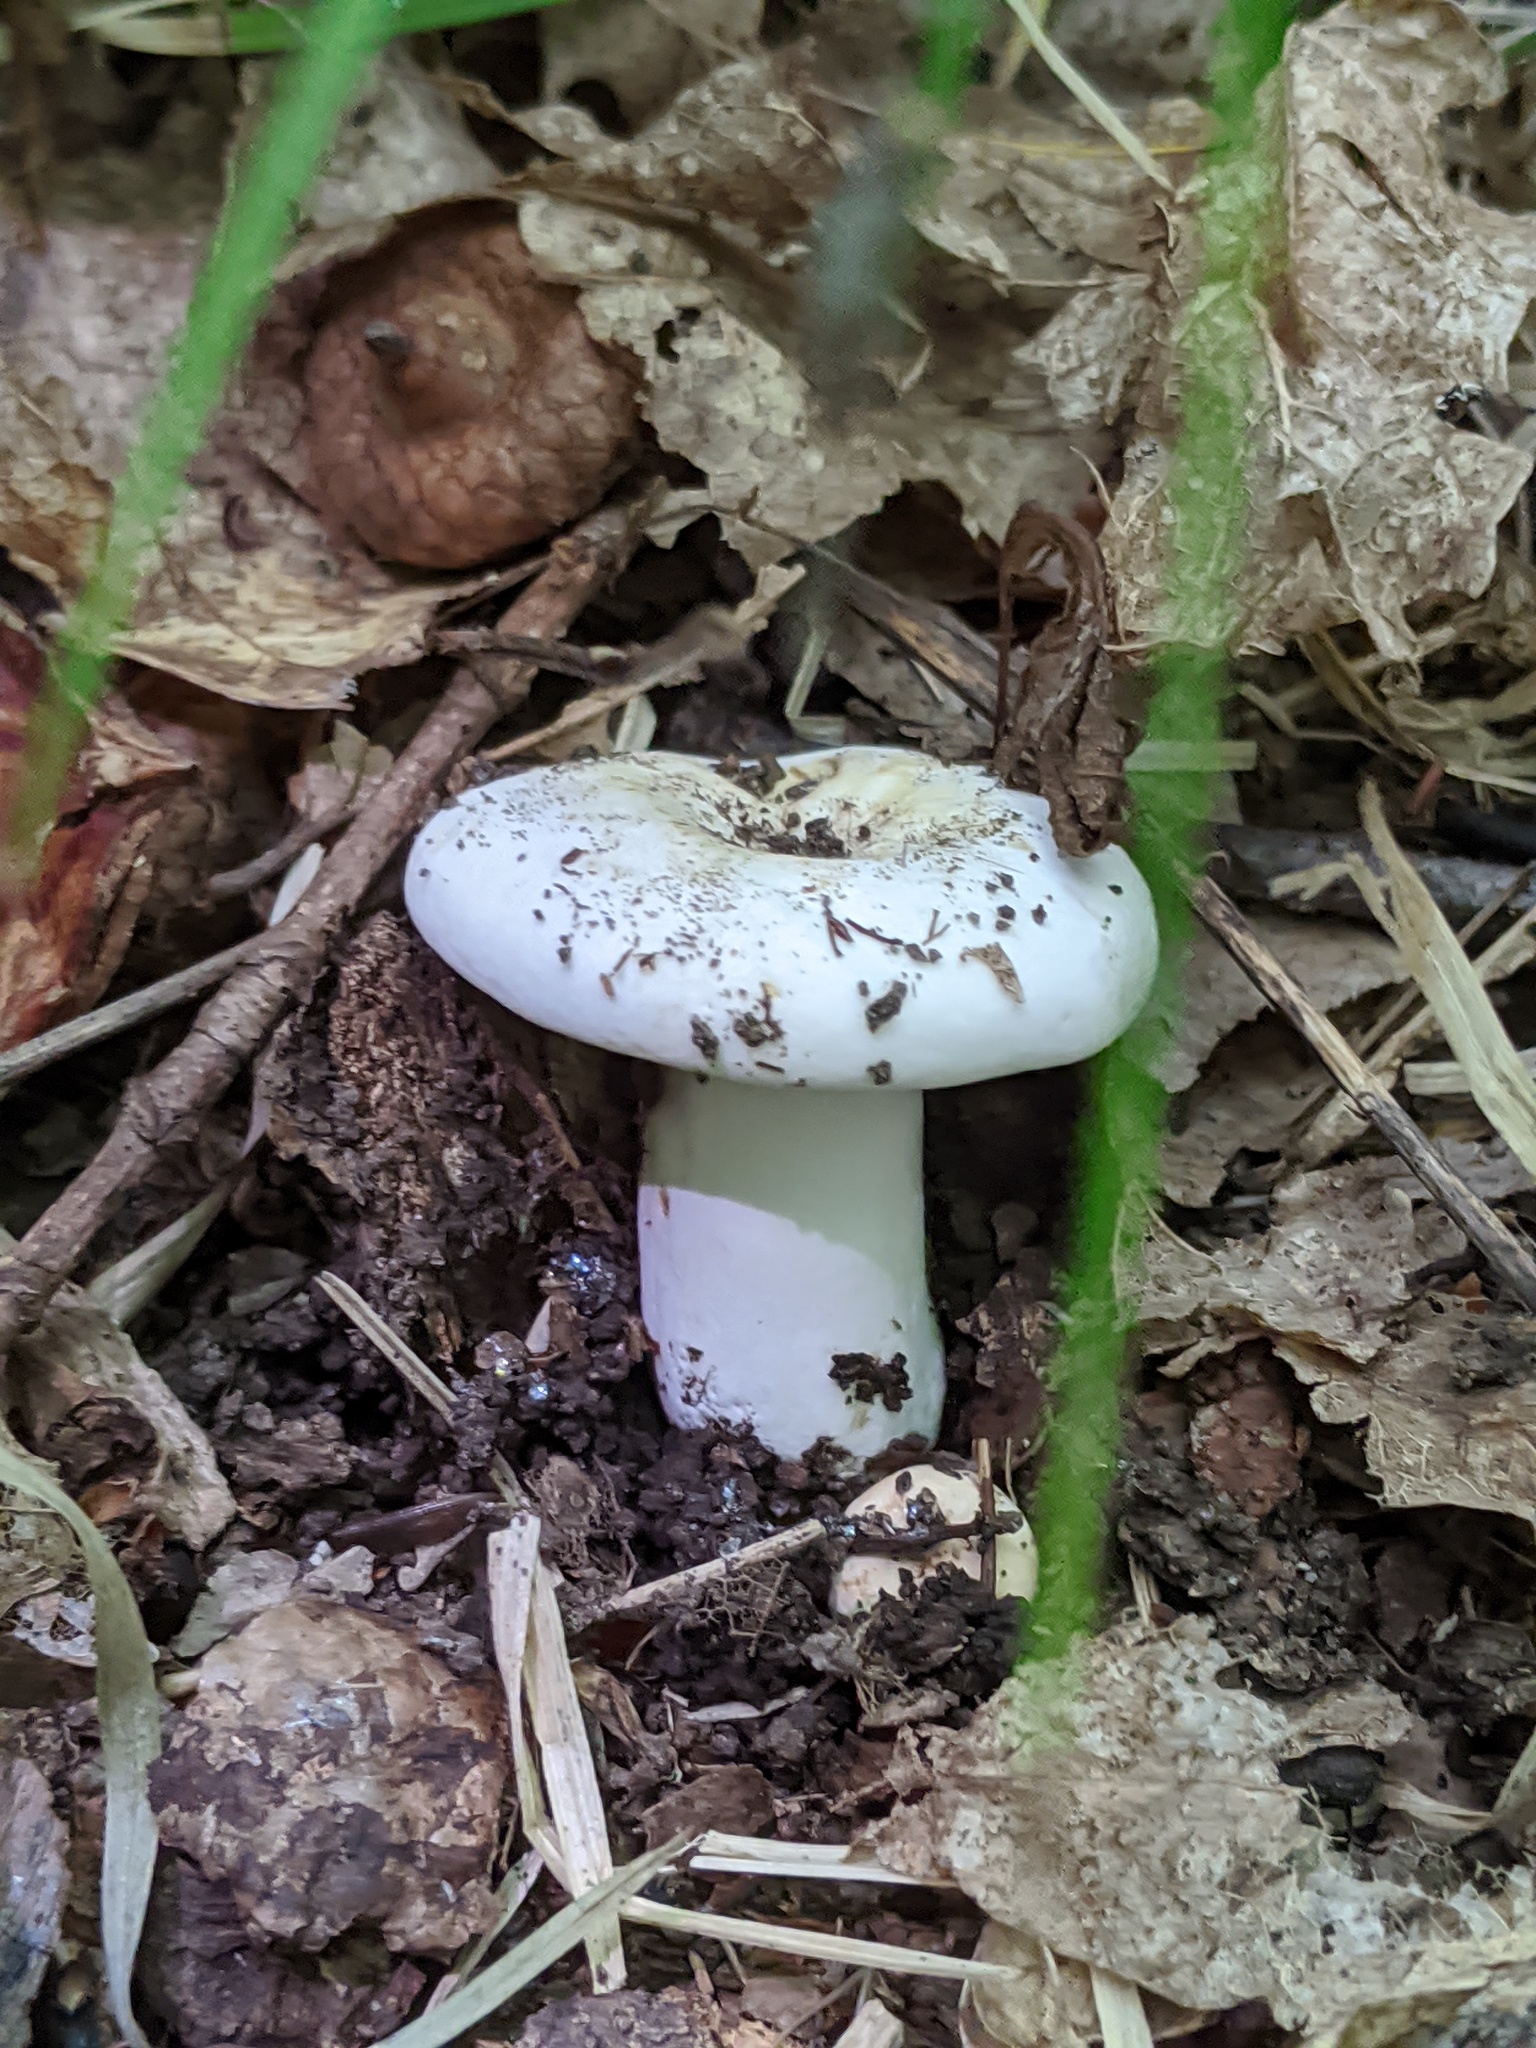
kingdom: Fungi
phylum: Basidiomycota
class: Agaricomycetes
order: Russulales
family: Russulaceae
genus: Lactifluus
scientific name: Lactifluus piperatus
